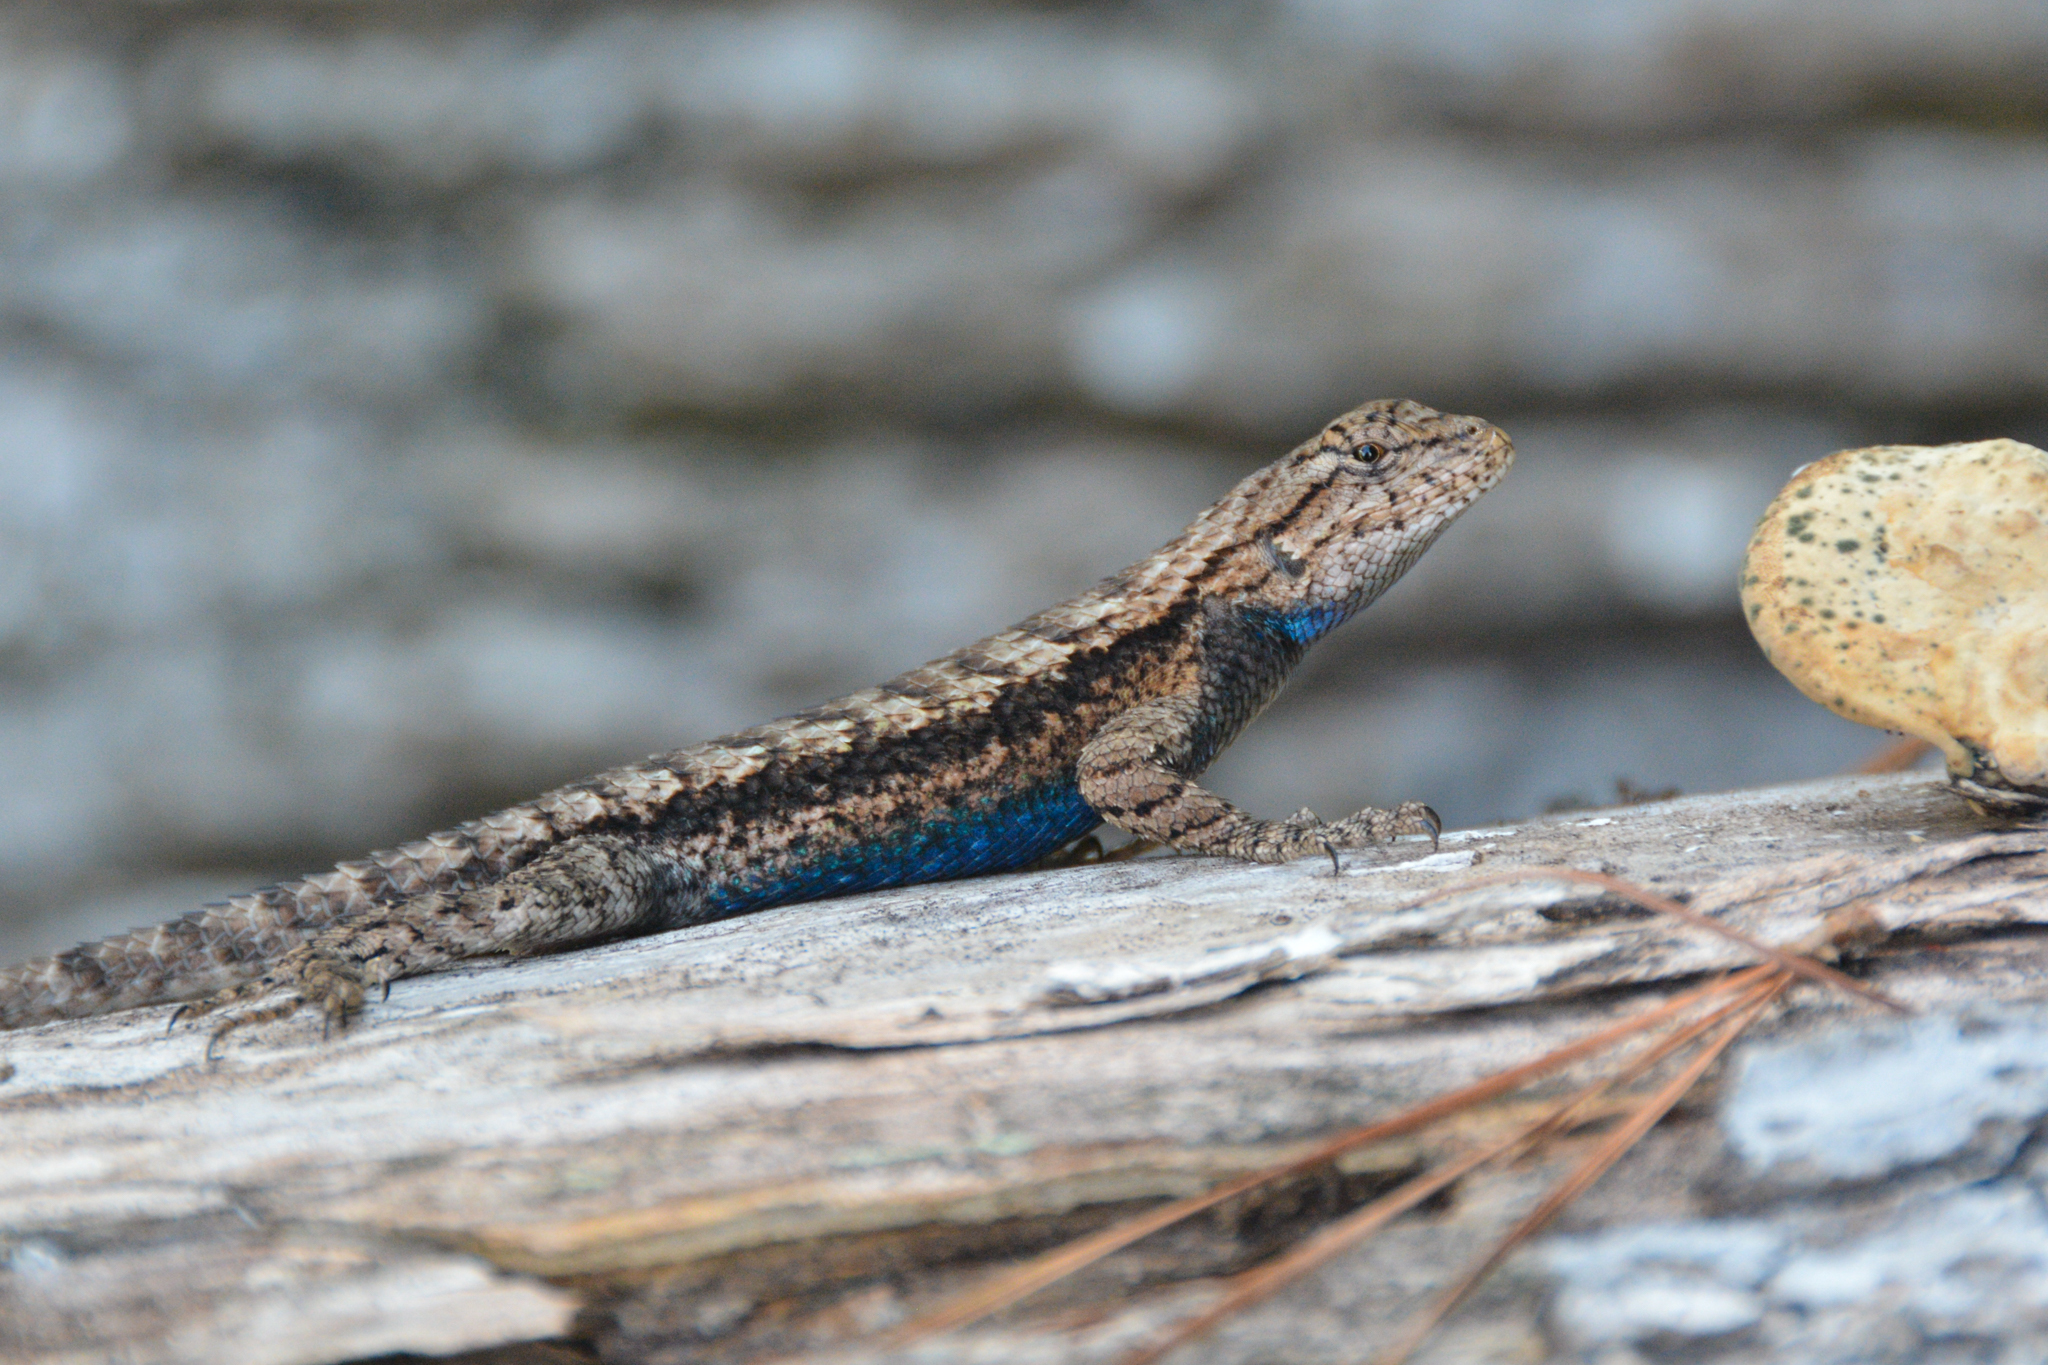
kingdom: Animalia
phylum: Chordata
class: Squamata
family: Phrynosomatidae
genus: Sceloporus
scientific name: Sceloporus consobrinus
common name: Southern prairie lizard
